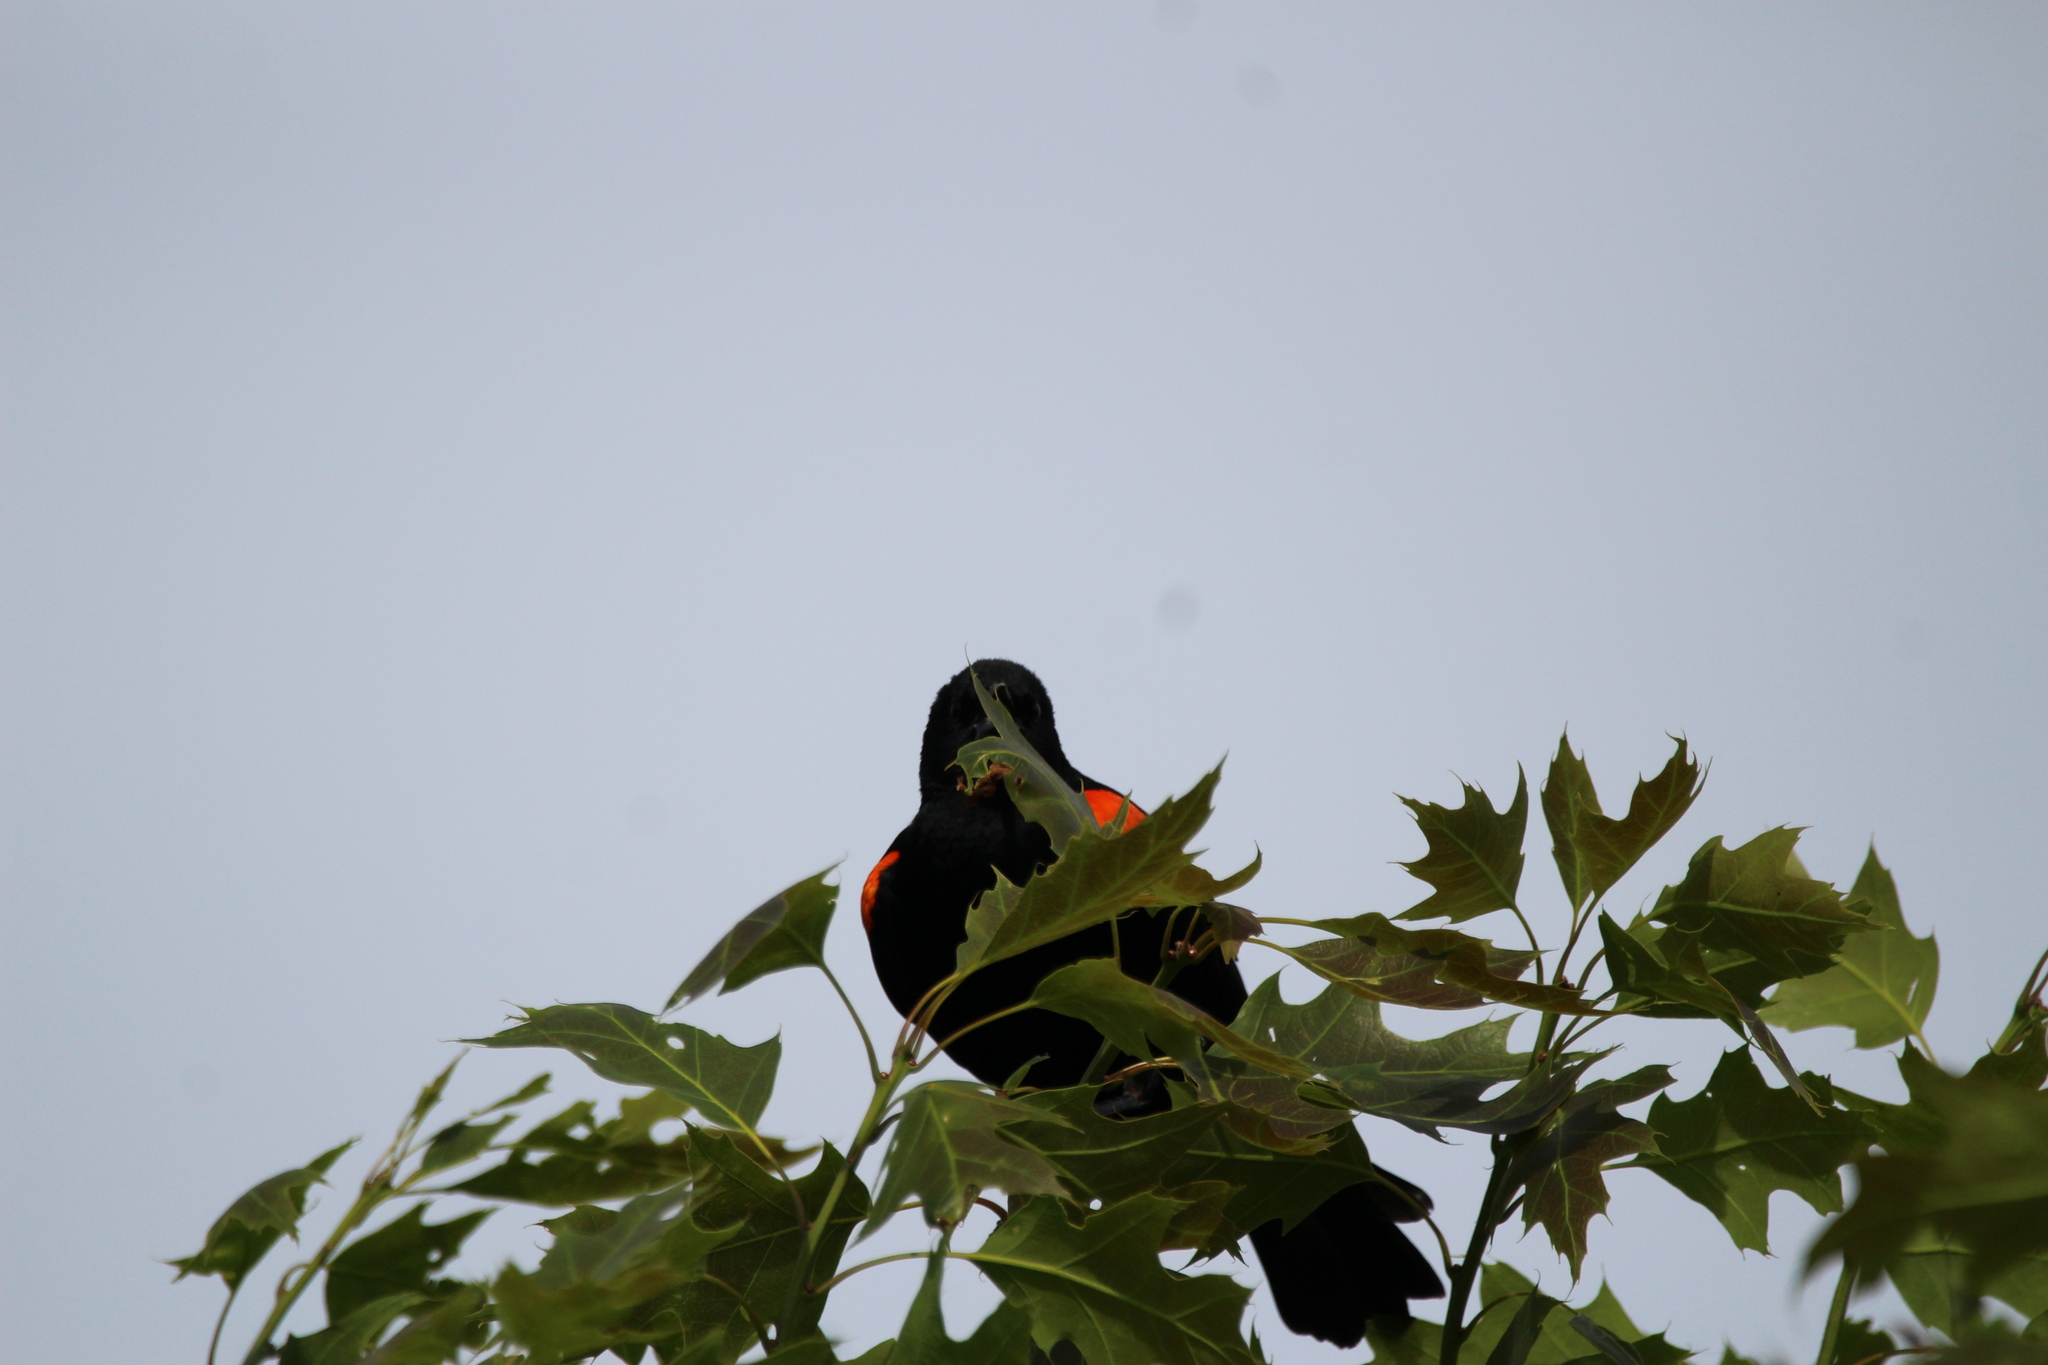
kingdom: Animalia
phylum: Chordata
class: Aves
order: Passeriformes
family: Icteridae
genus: Agelaius
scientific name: Agelaius phoeniceus
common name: Red-winged blackbird
